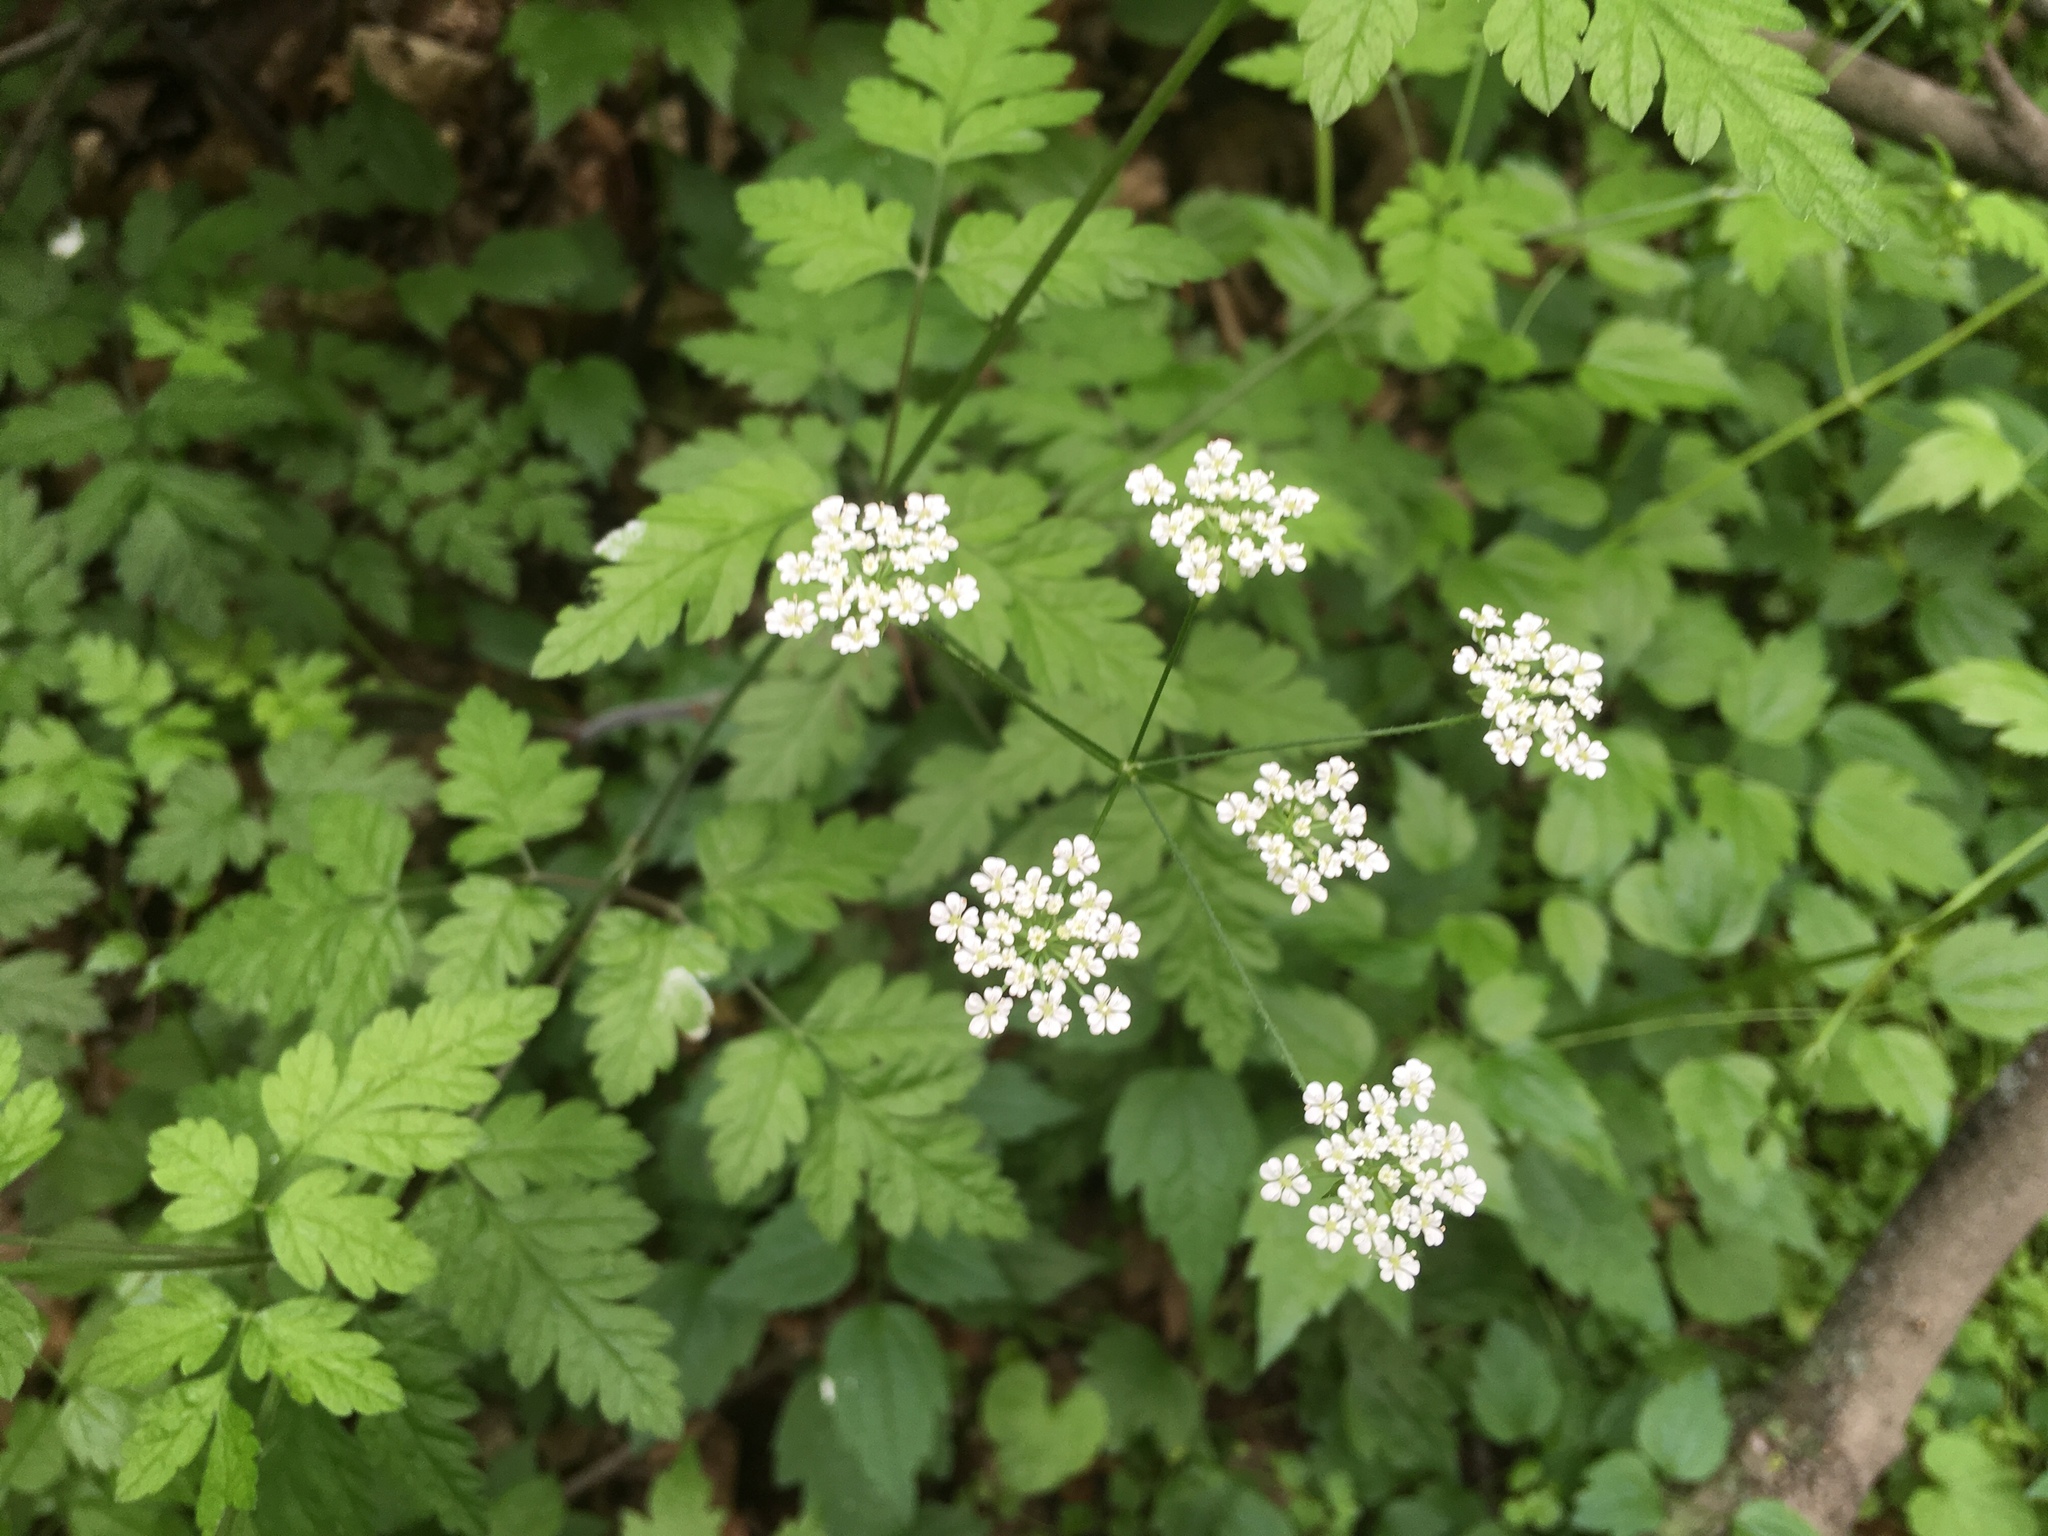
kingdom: Plantae
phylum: Tracheophyta
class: Magnoliopsida
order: Apiales
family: Apiaceae
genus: Chaerophyllum
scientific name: Chaerophyllum temulum
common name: Rough chervil
